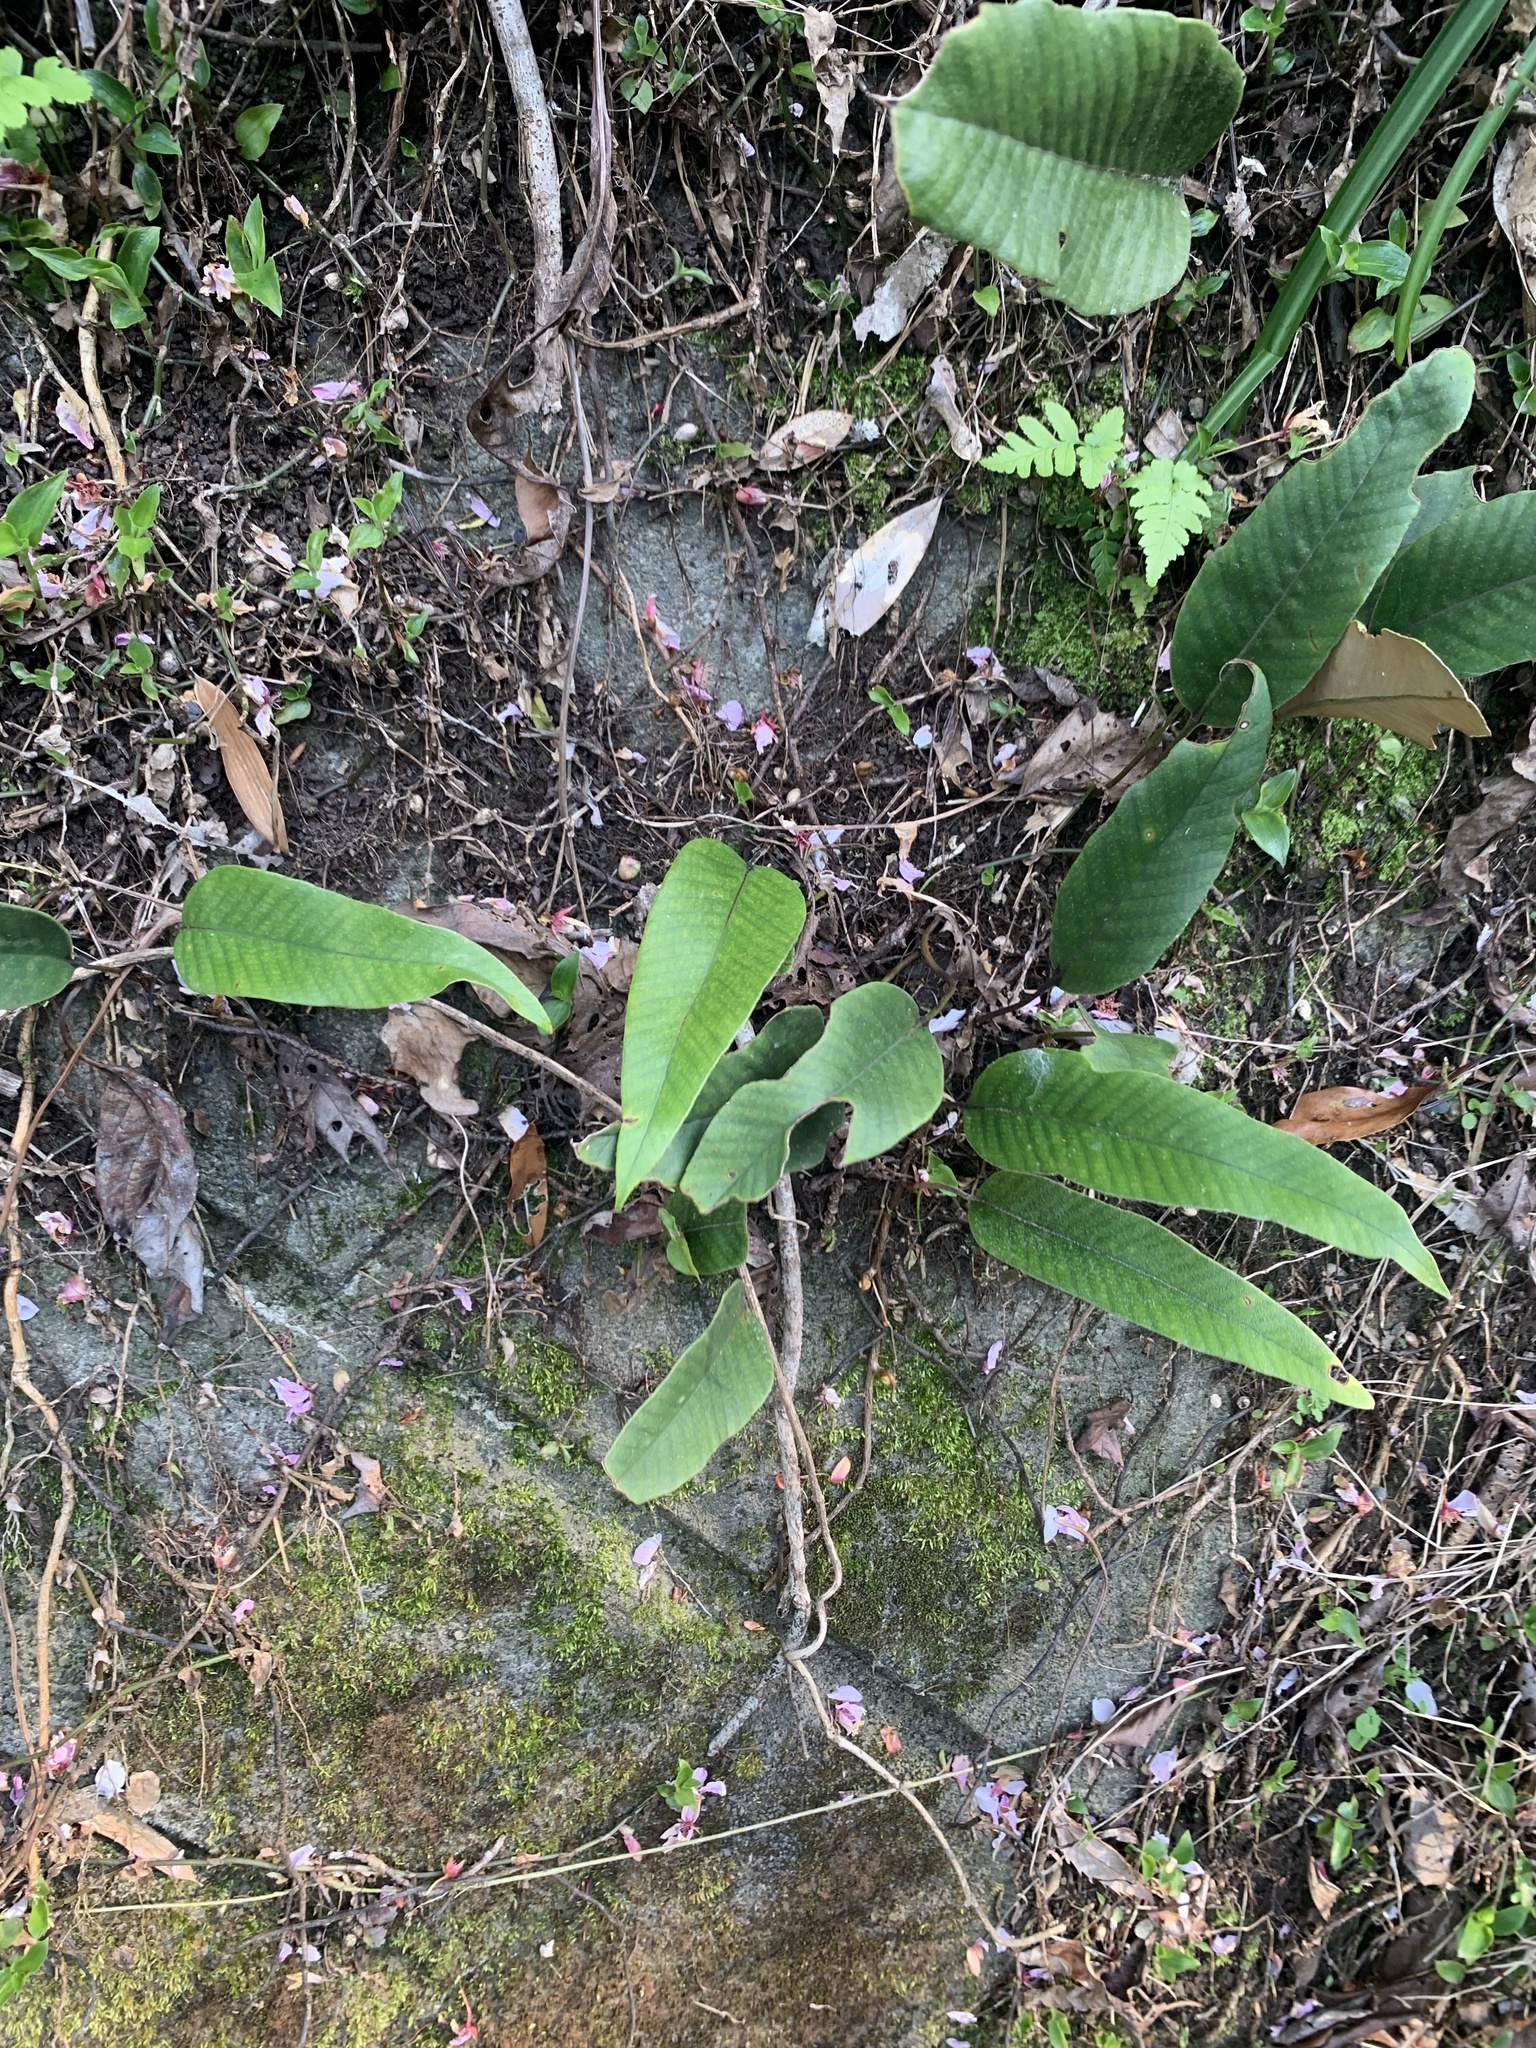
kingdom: Plantae
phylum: Tracheophyta
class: Polypodiopsida
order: Polypodiales
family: Polypodiaceae
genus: Pyrrosia
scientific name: Pyrrosia lingua
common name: Felt fern
